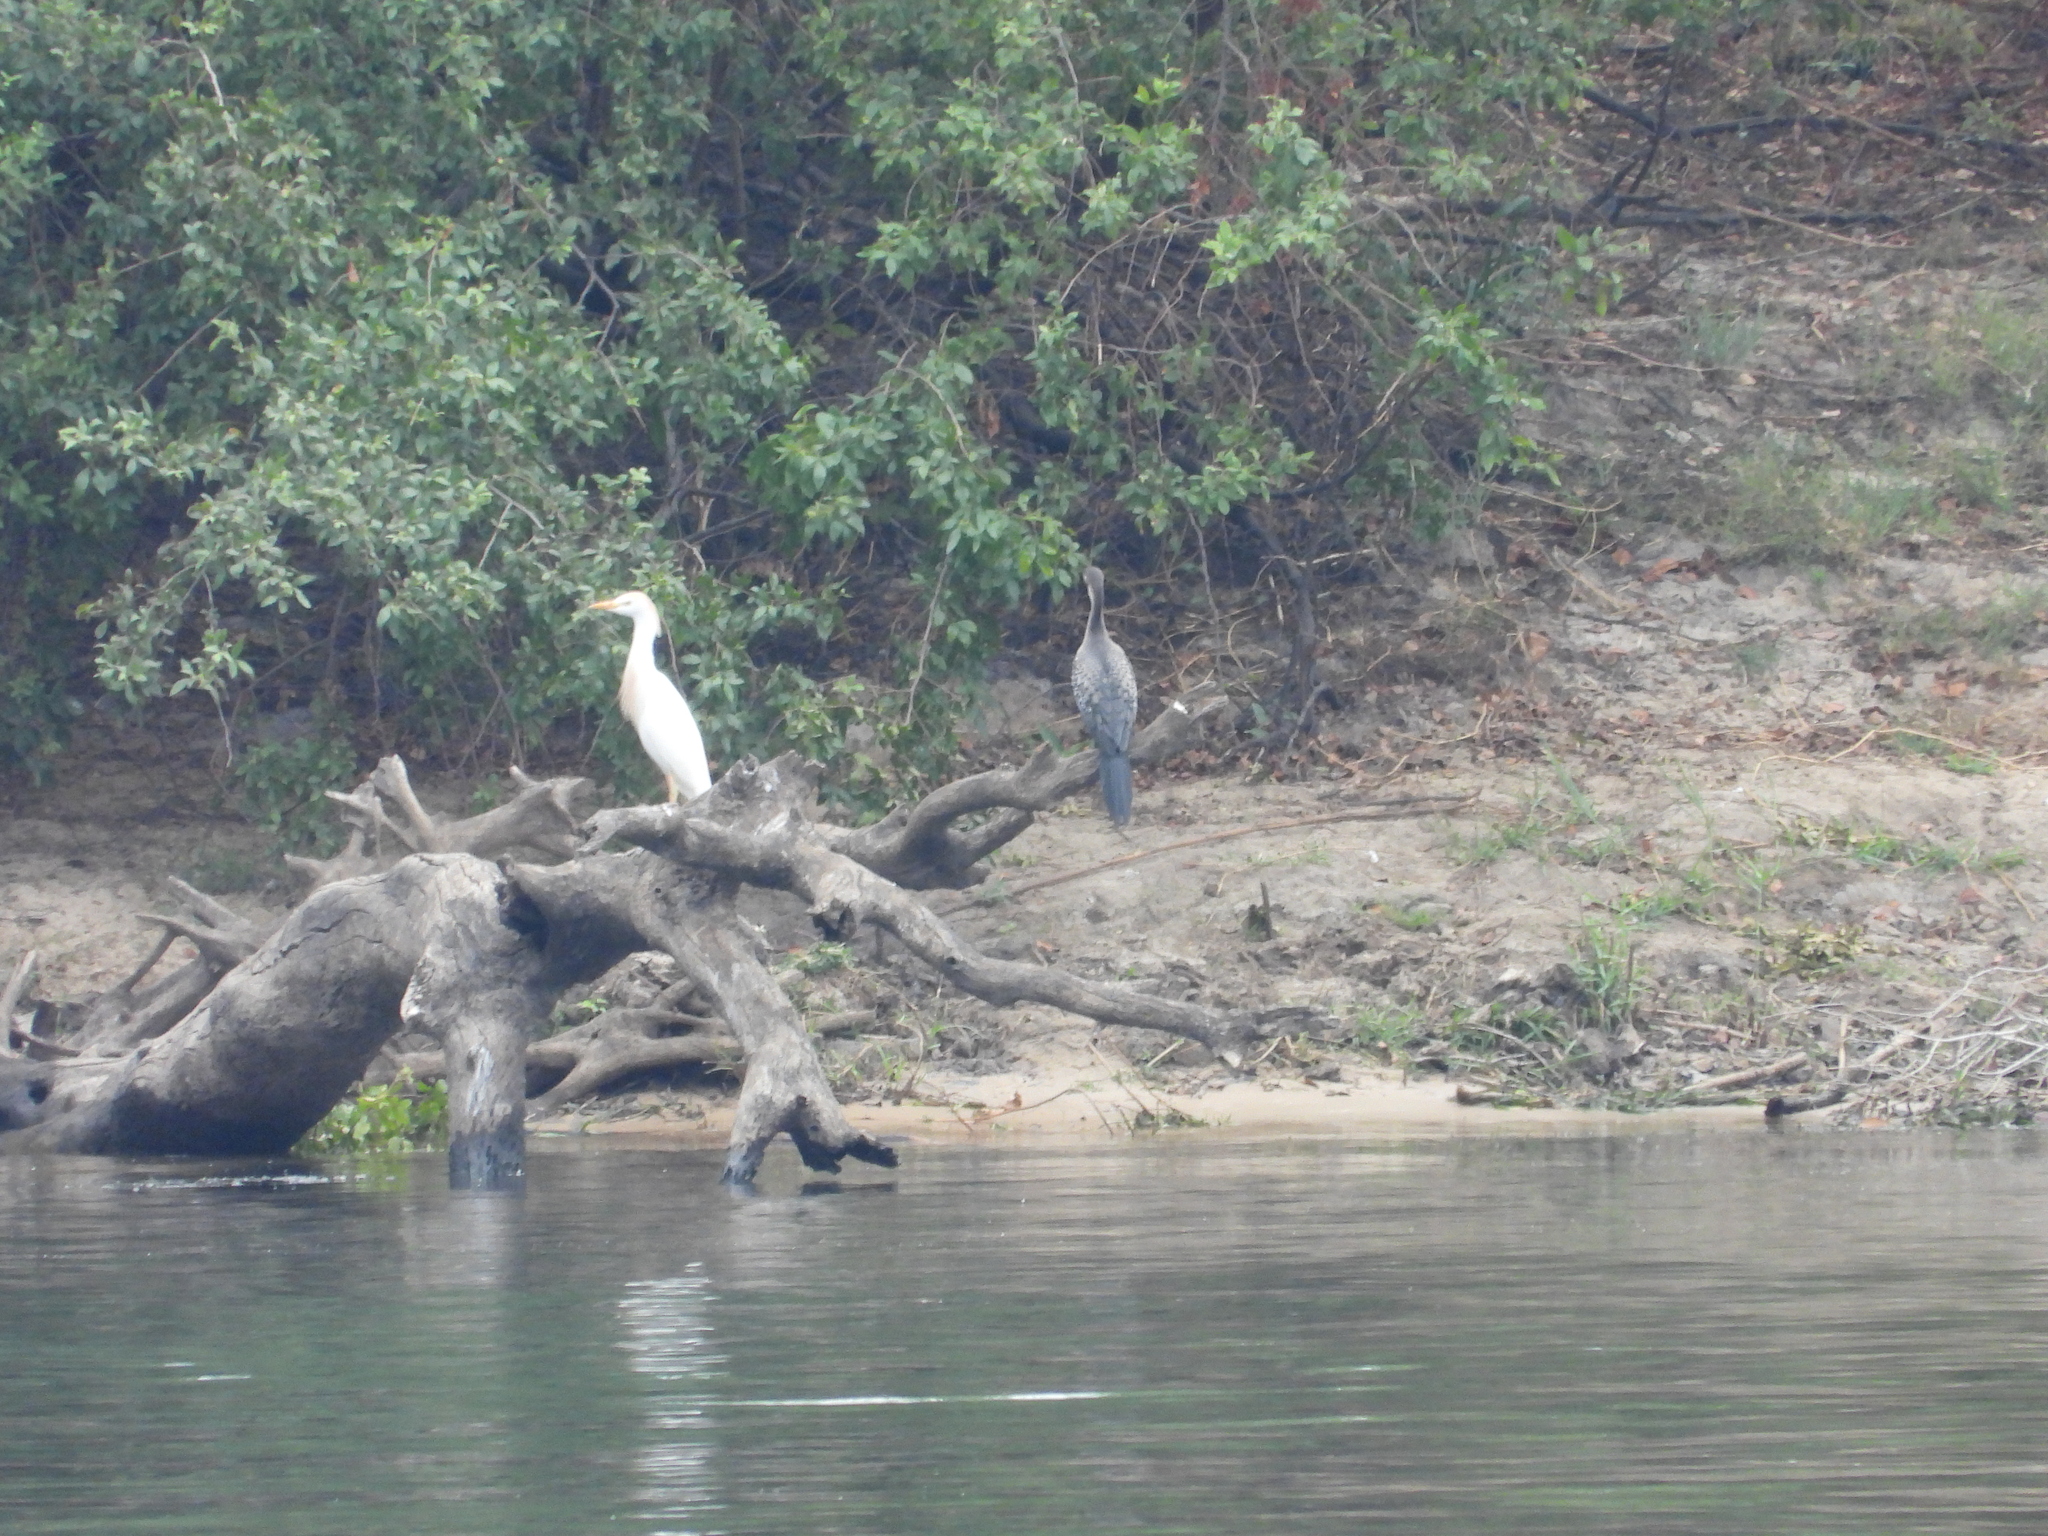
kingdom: Animalia
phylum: Chordata
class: Aves
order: Suliformes
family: Phalacrocoracidae
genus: Microcarbo
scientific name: Microcarbo africanus
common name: Long-tailed cormorant
